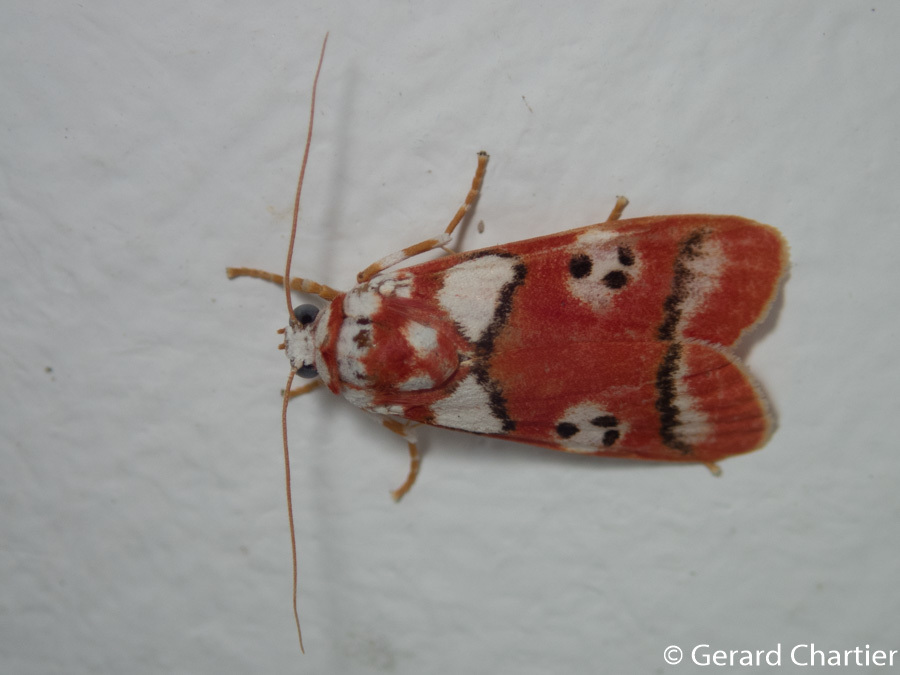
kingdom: Animalia
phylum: Arthropoda
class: Insecta
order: Lepidoptera
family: Erebidae
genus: Cyana
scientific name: Cyana weerawoothi
